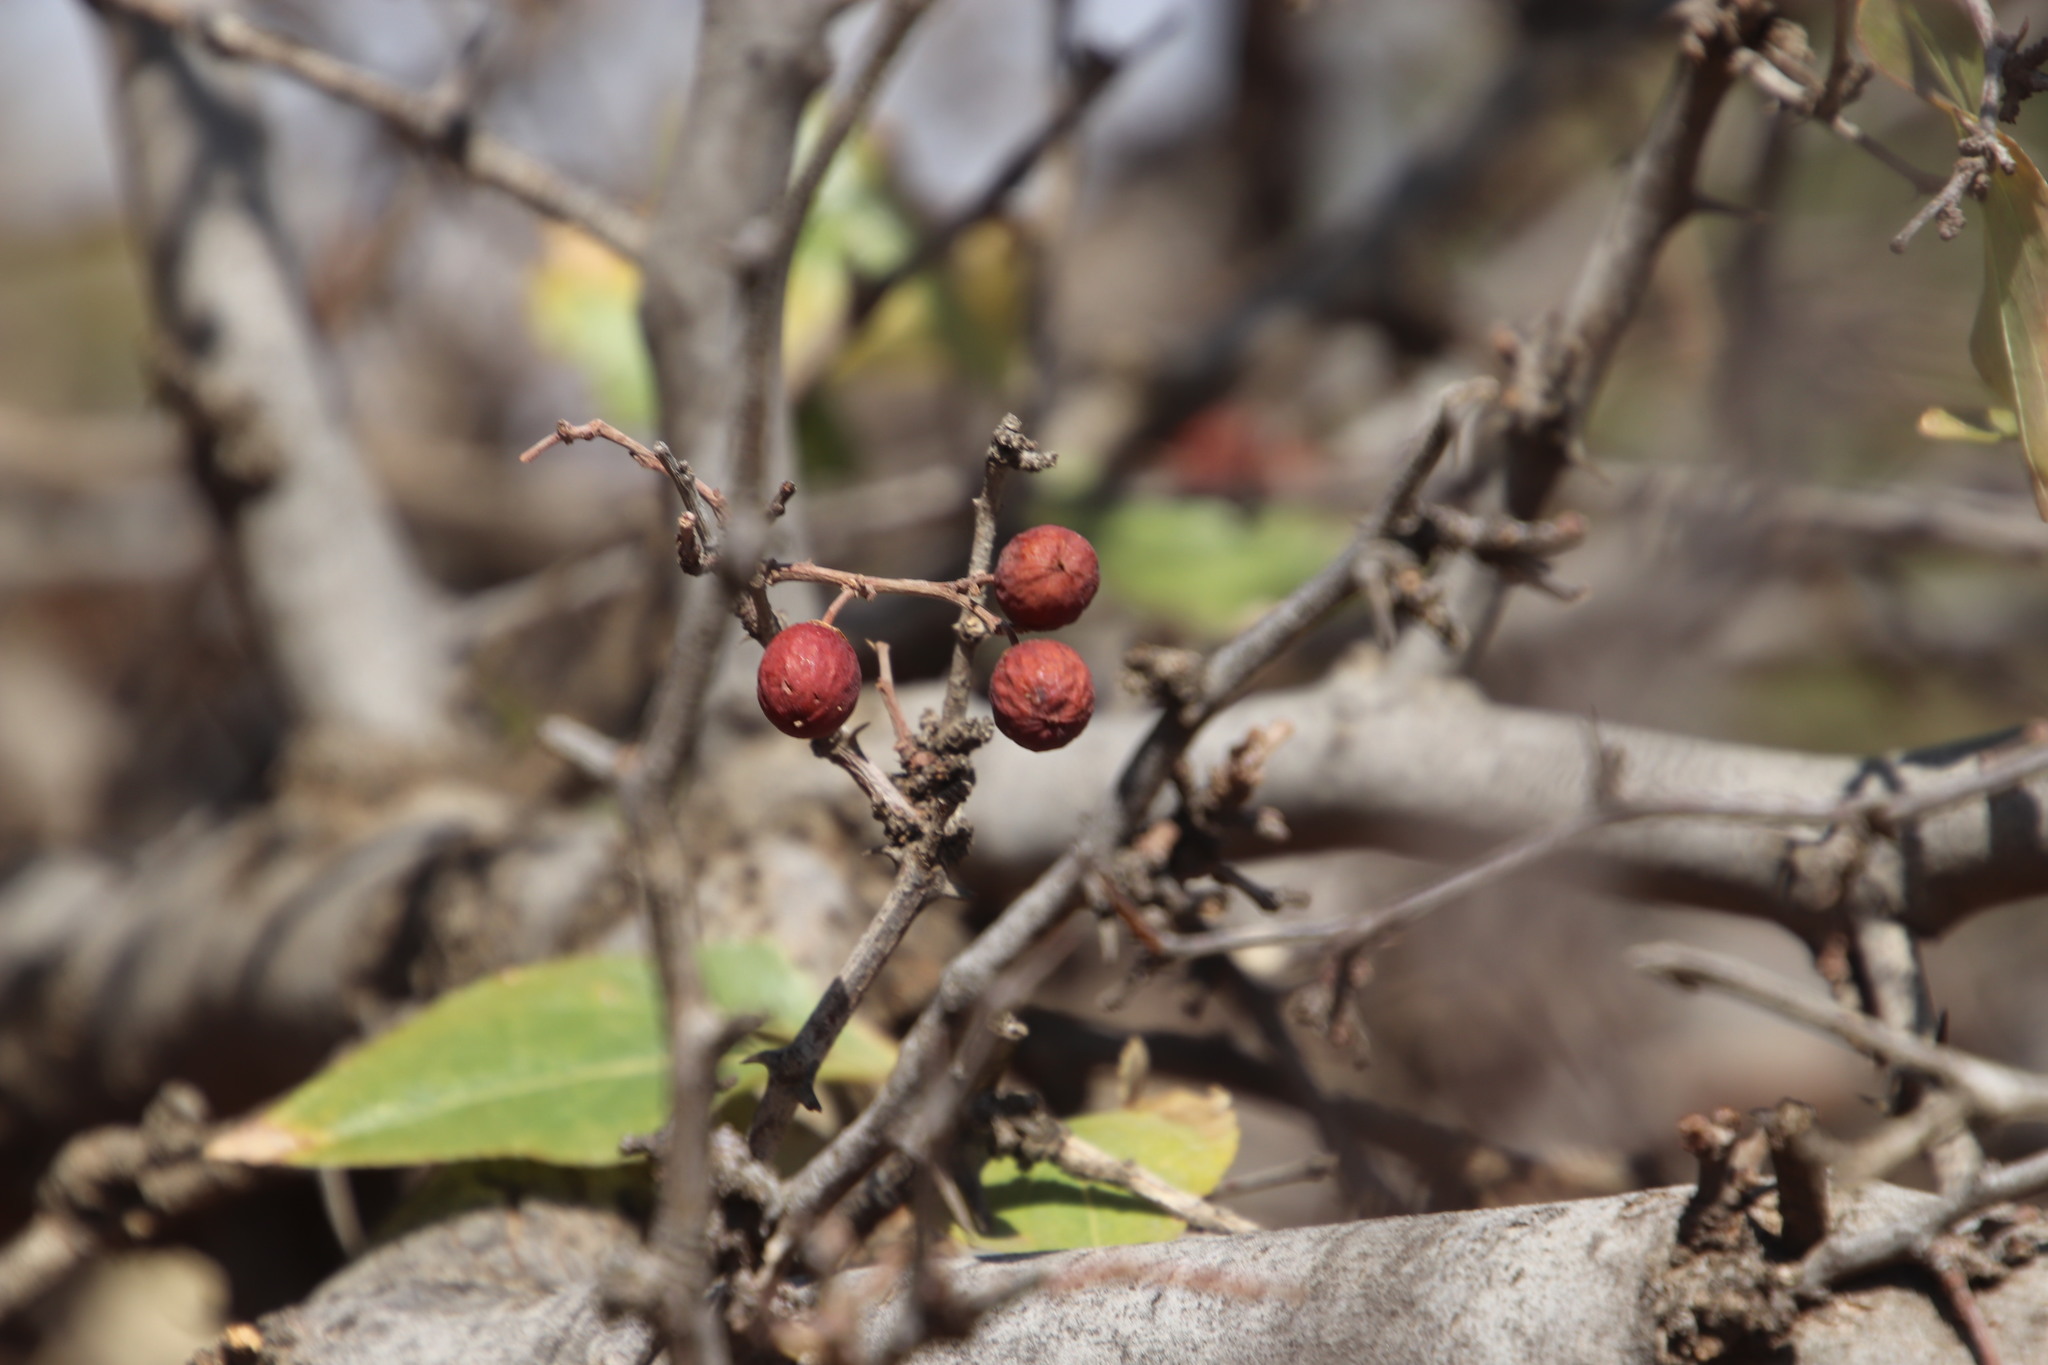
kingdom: Plantae
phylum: Tracheophyta
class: Magnoliopsida
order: Rosales
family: Rhamnaceae
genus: Ziziphus
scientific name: Ziziphus mucronata
